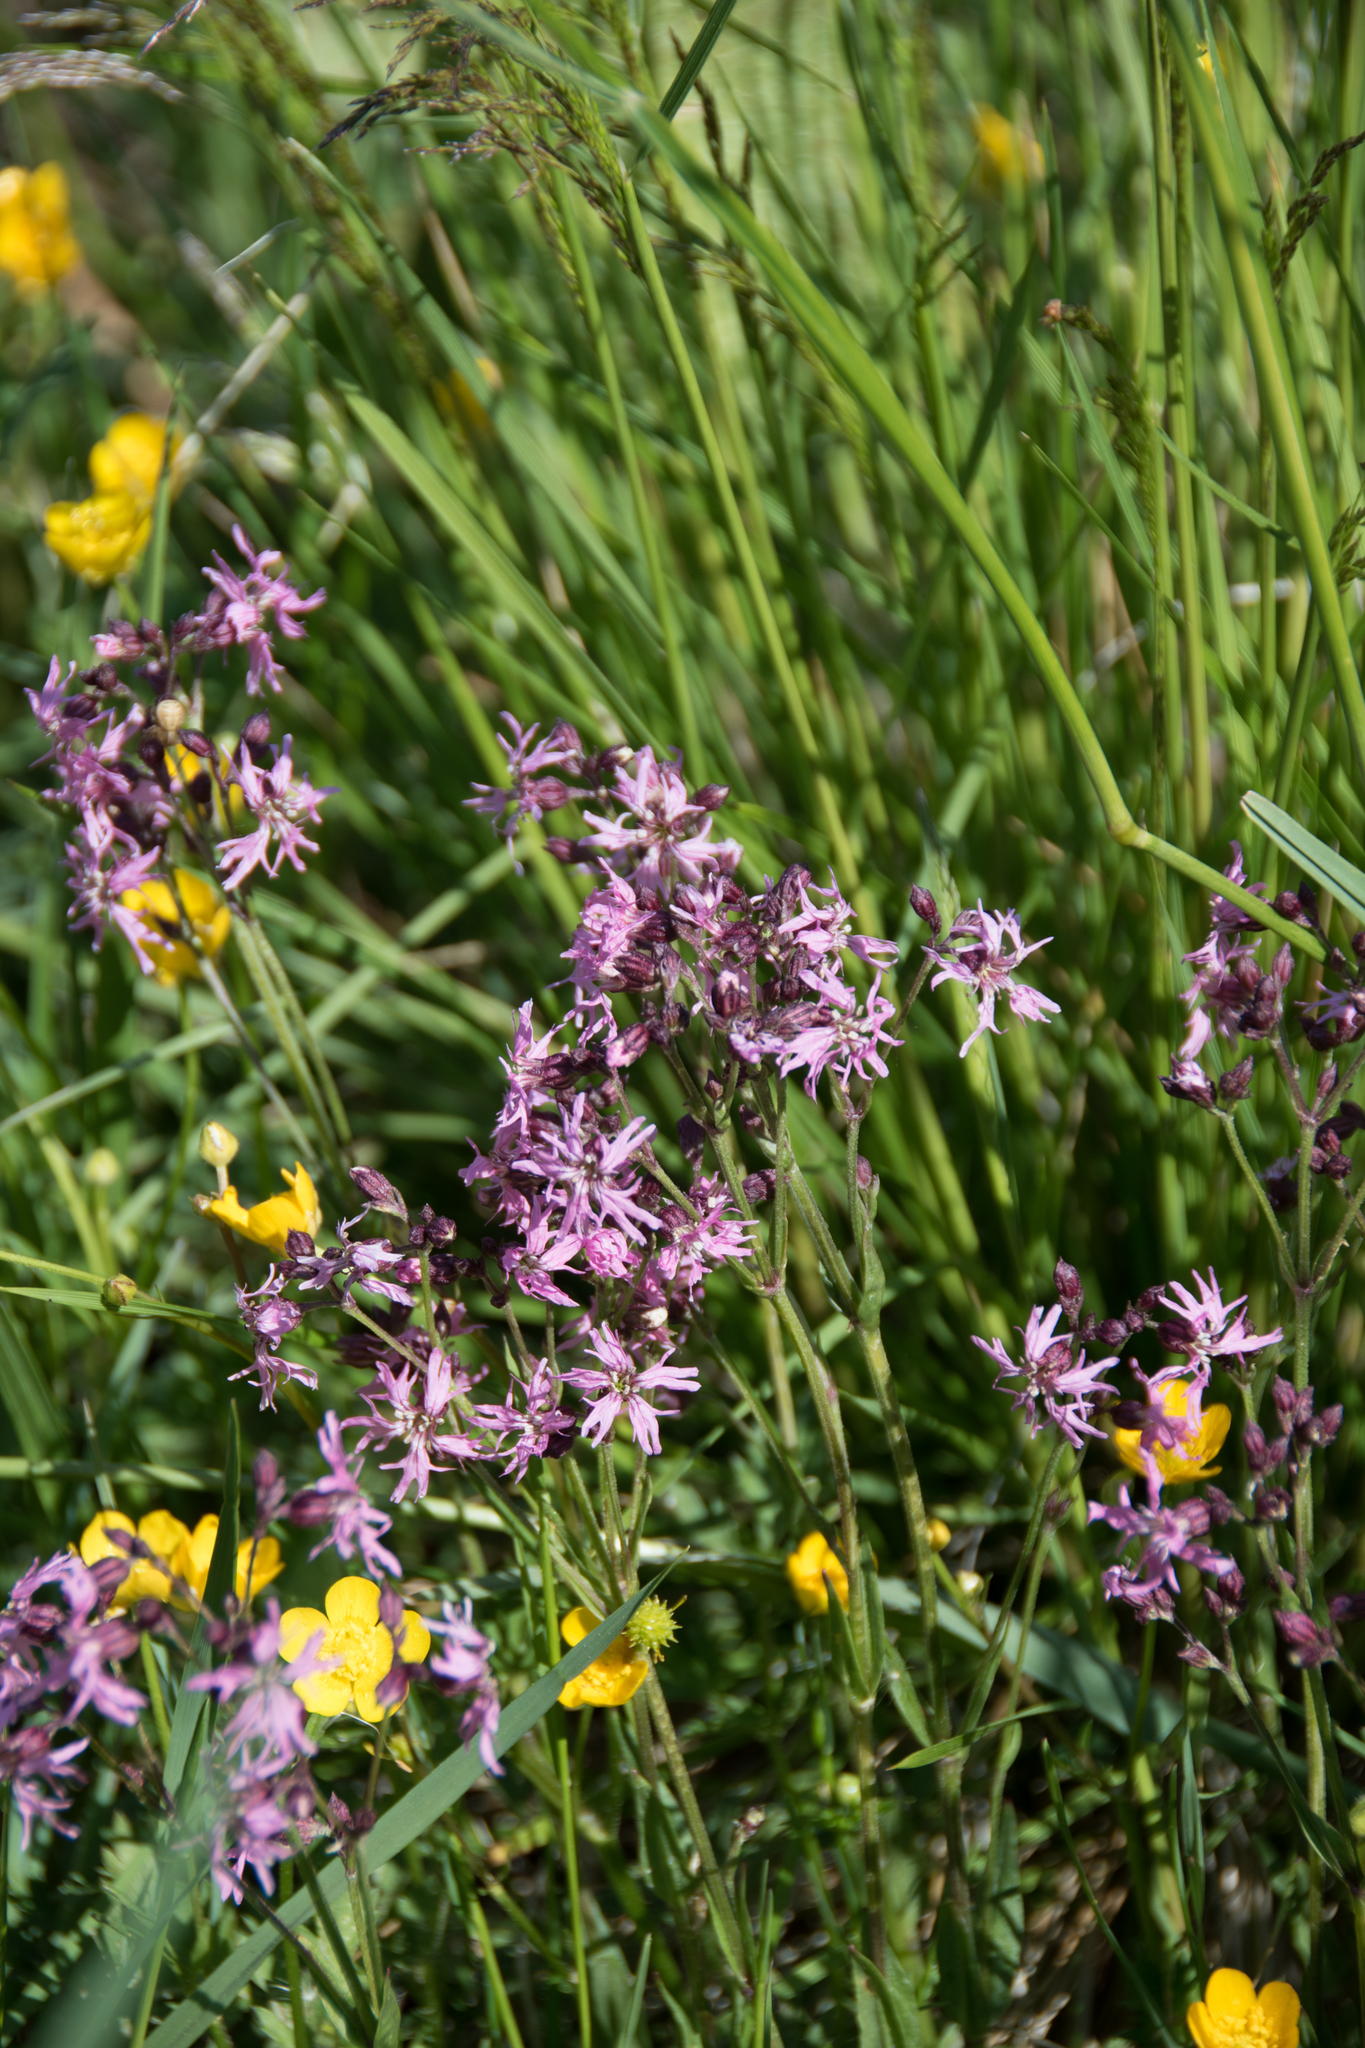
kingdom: Plantae
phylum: Tracheophyta
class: Magnoliopsida
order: Caryophyllales
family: Caryophyllaceae
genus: Silene
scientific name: Silene flos-cuculi
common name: Ragged-robin
